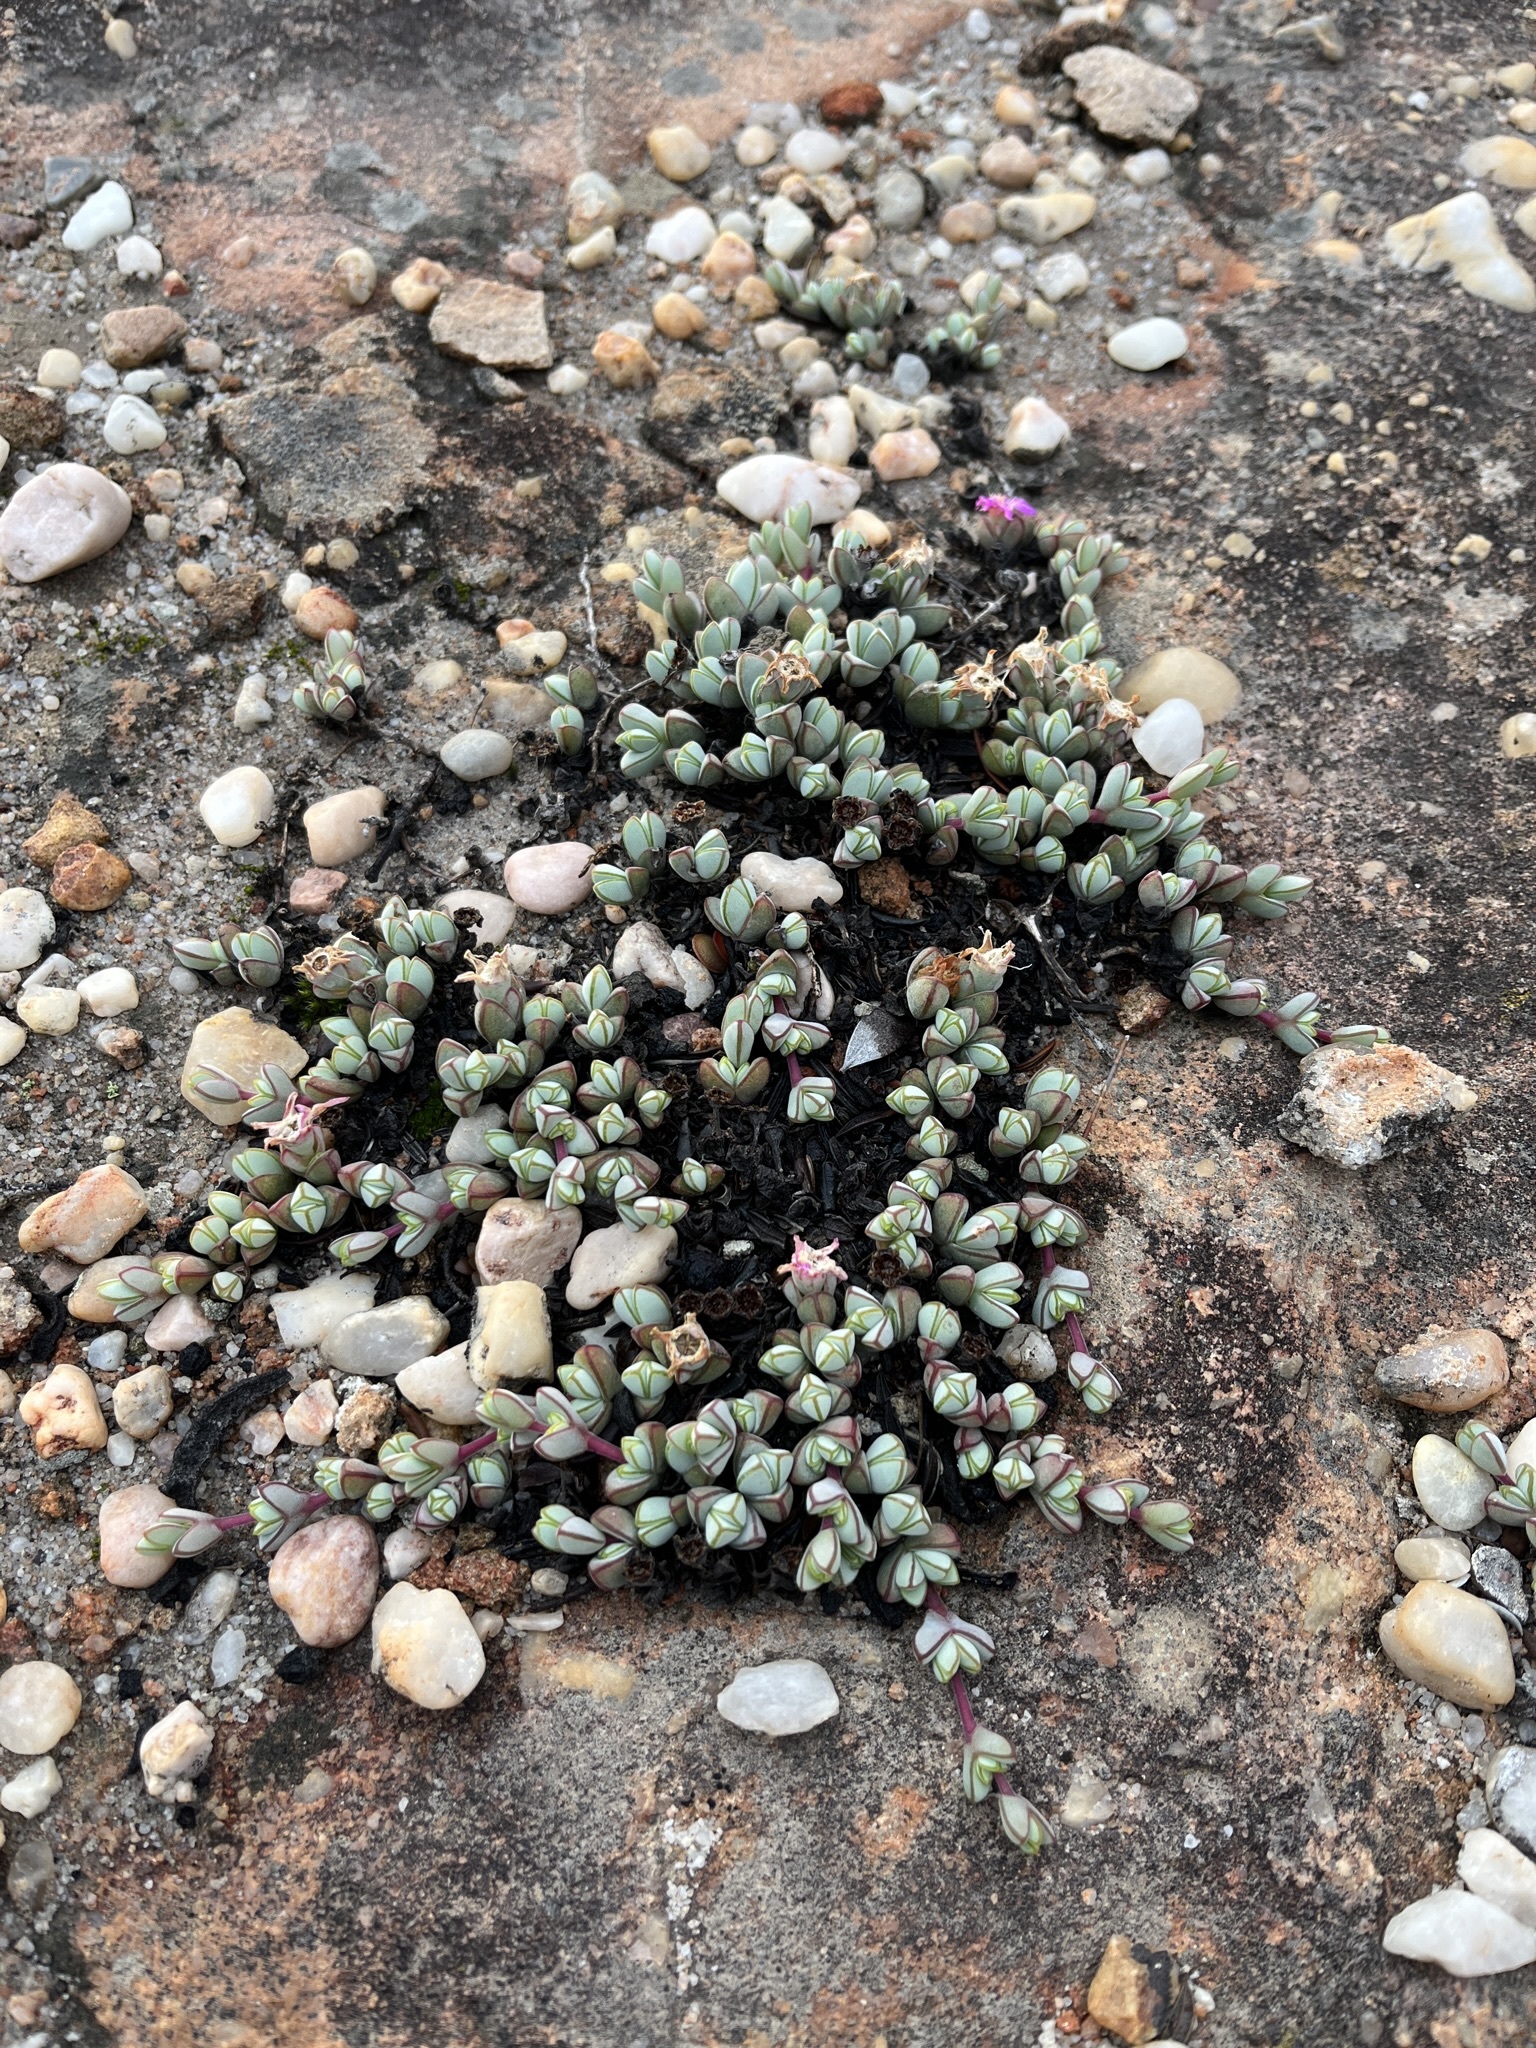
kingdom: Plantae
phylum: Tracheophyta
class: Magnoliopsida
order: Caryophyllales
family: Aizoaceae
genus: Braunsia
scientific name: Braunsia maximiliani
